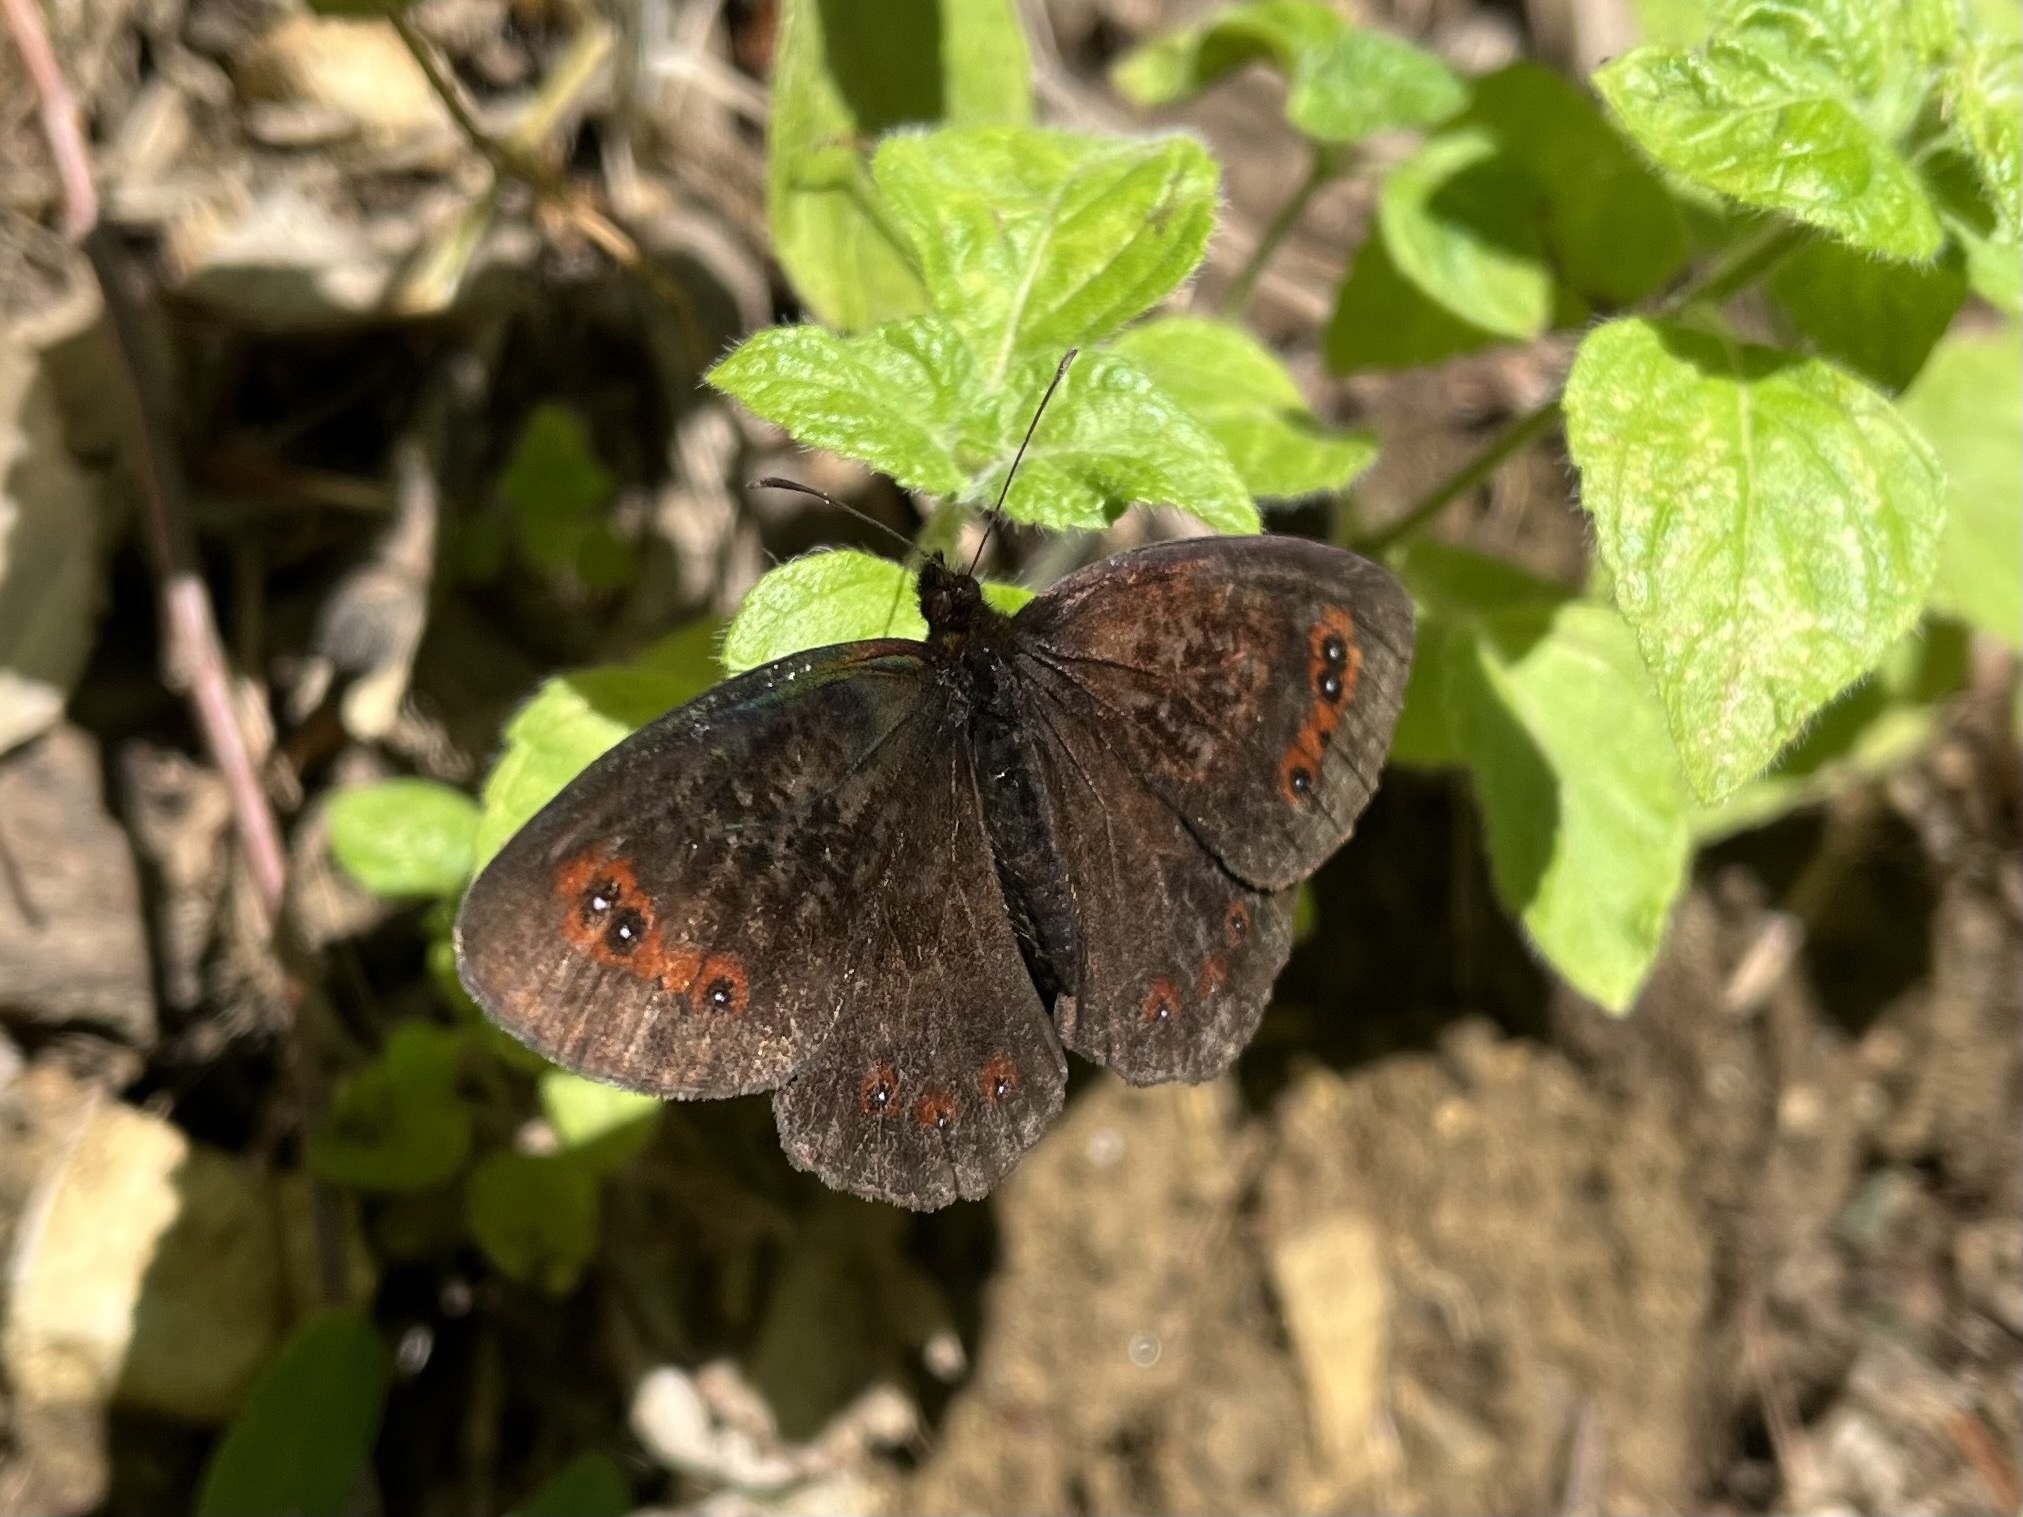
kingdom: Animalia
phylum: Arthropoda
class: Insecta
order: Lepidoptera
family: Nymphalidae
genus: Erebia
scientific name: Erebia aethiops
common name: Scotch argus
